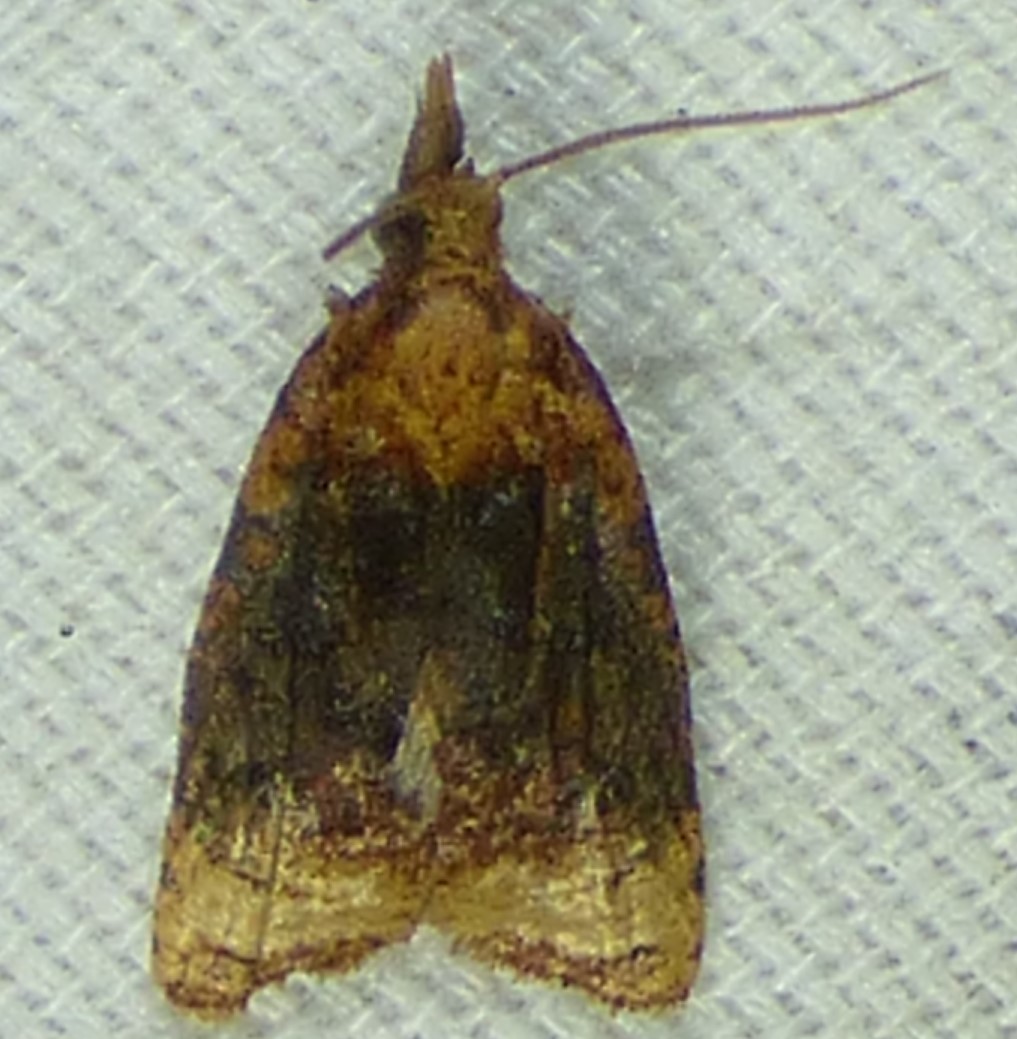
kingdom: Animalia
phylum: Arthropoda
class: Insecta
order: Lepidoptera
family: Tortricidae
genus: Platynota
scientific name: Platynota flavedana
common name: Black-shaded platynota moth
